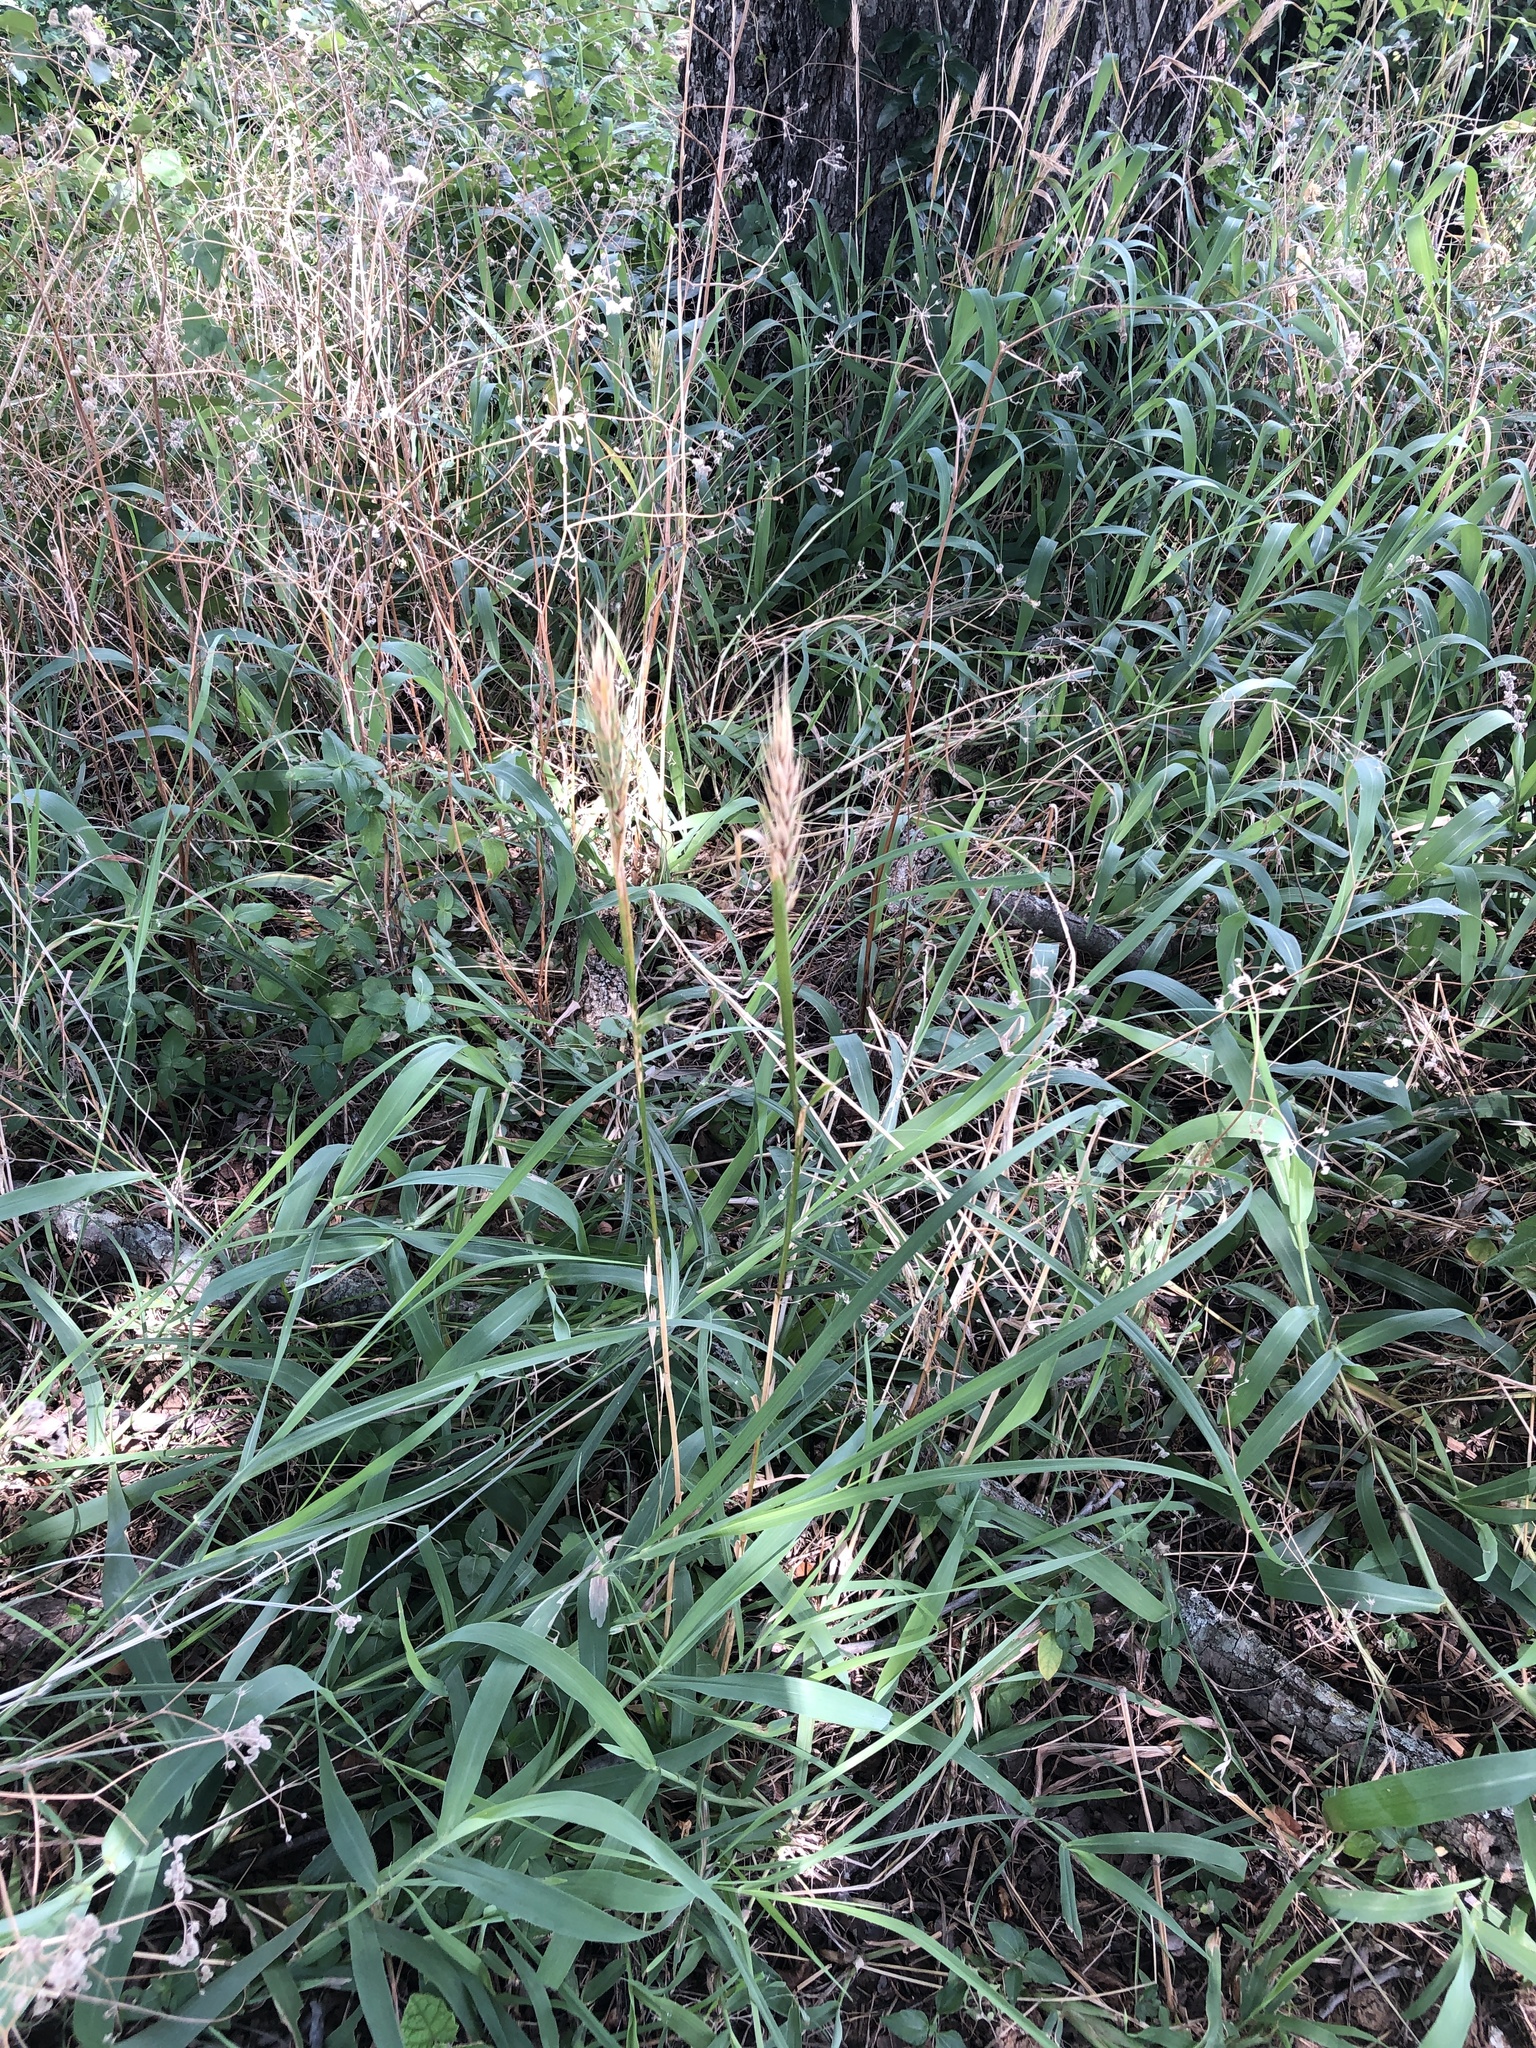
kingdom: Plantae
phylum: Tracheophyta
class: Liliopsida
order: Poales
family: Poaceae
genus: Elymus
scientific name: Elymus virginicus
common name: Common eastern wildrye
